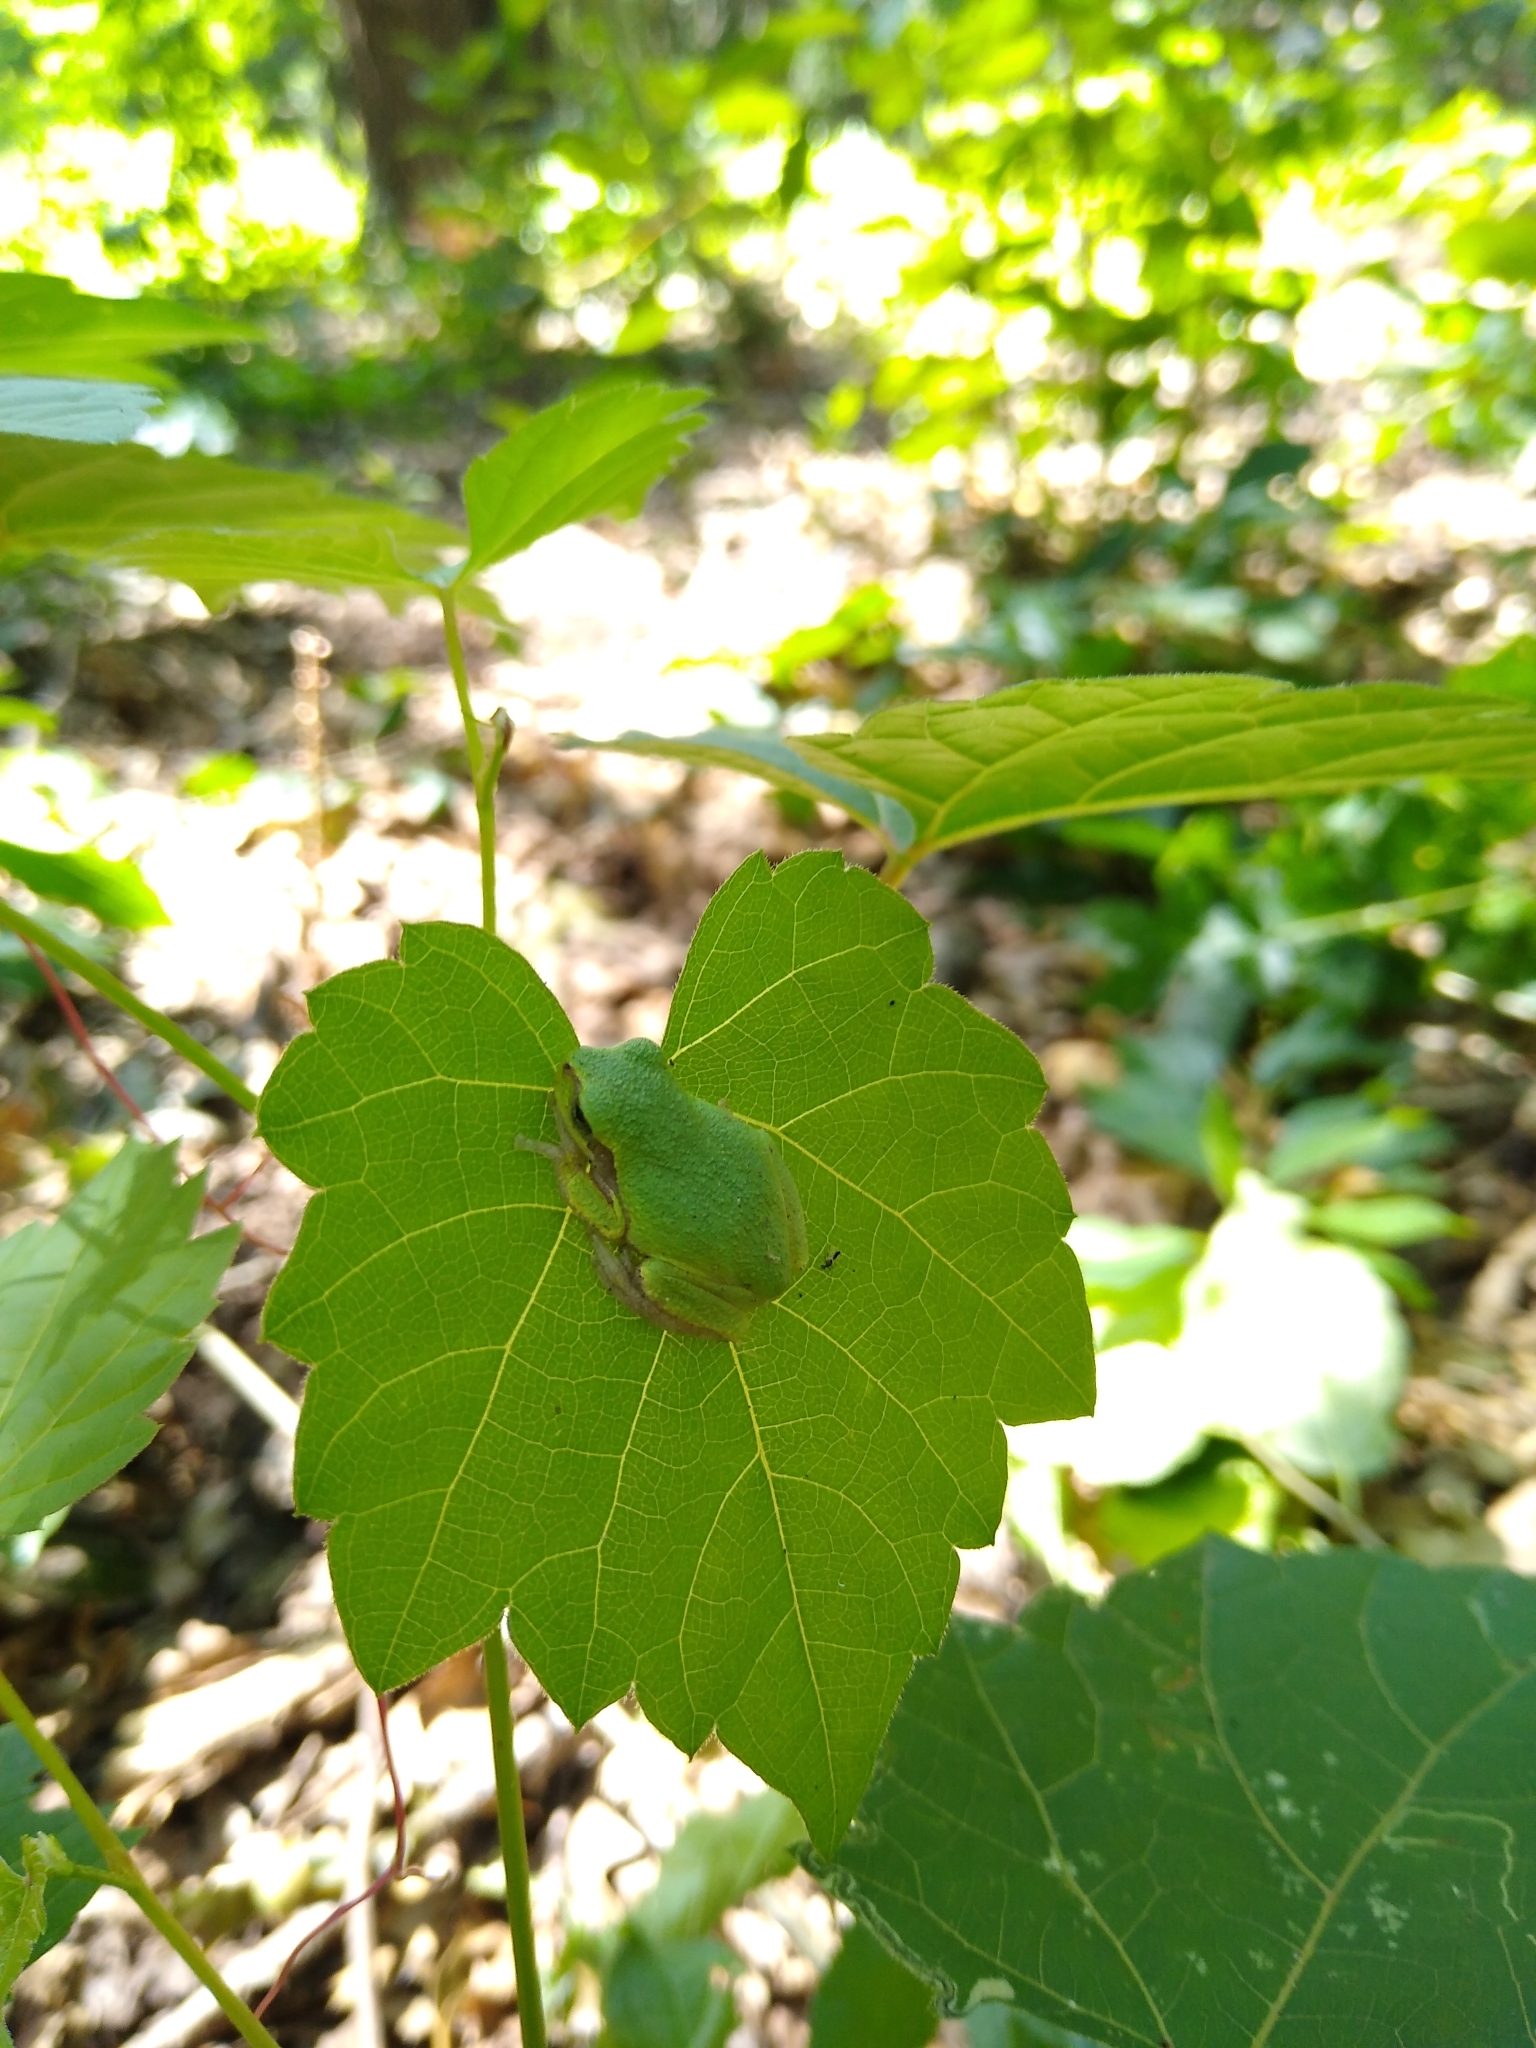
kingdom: Animalia
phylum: Chordata
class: Amphibia
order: Anura
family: Hylidae
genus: Hyla
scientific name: Hyla
